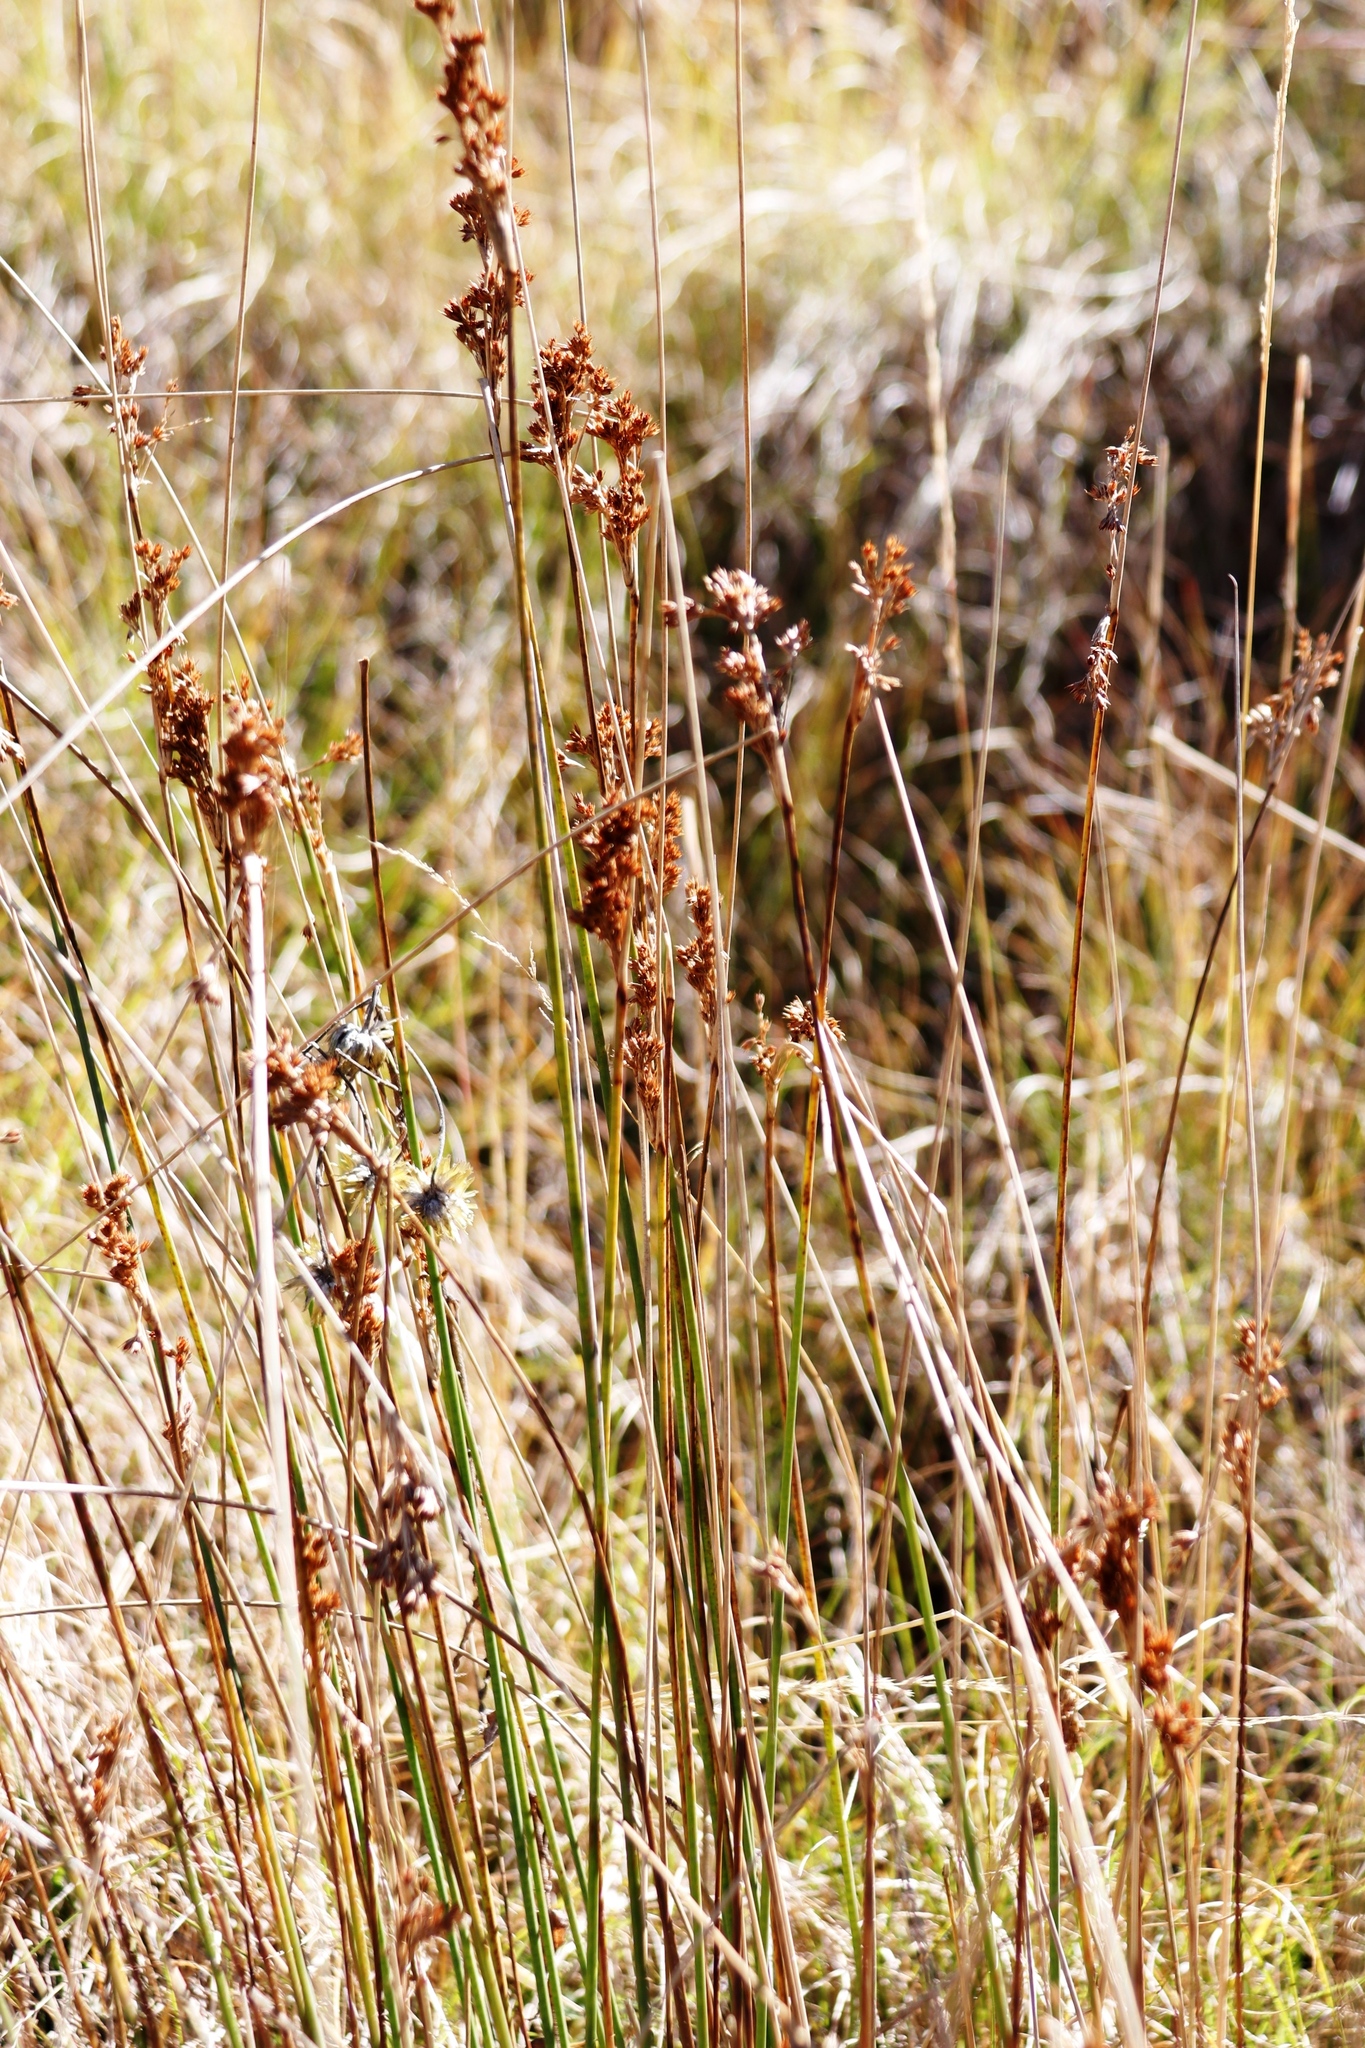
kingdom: Plantae
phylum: Tracheophyta
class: Liliopsida
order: Poales
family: Juncaceae
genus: Juncus
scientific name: Juncus inflexus
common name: Hard rush
